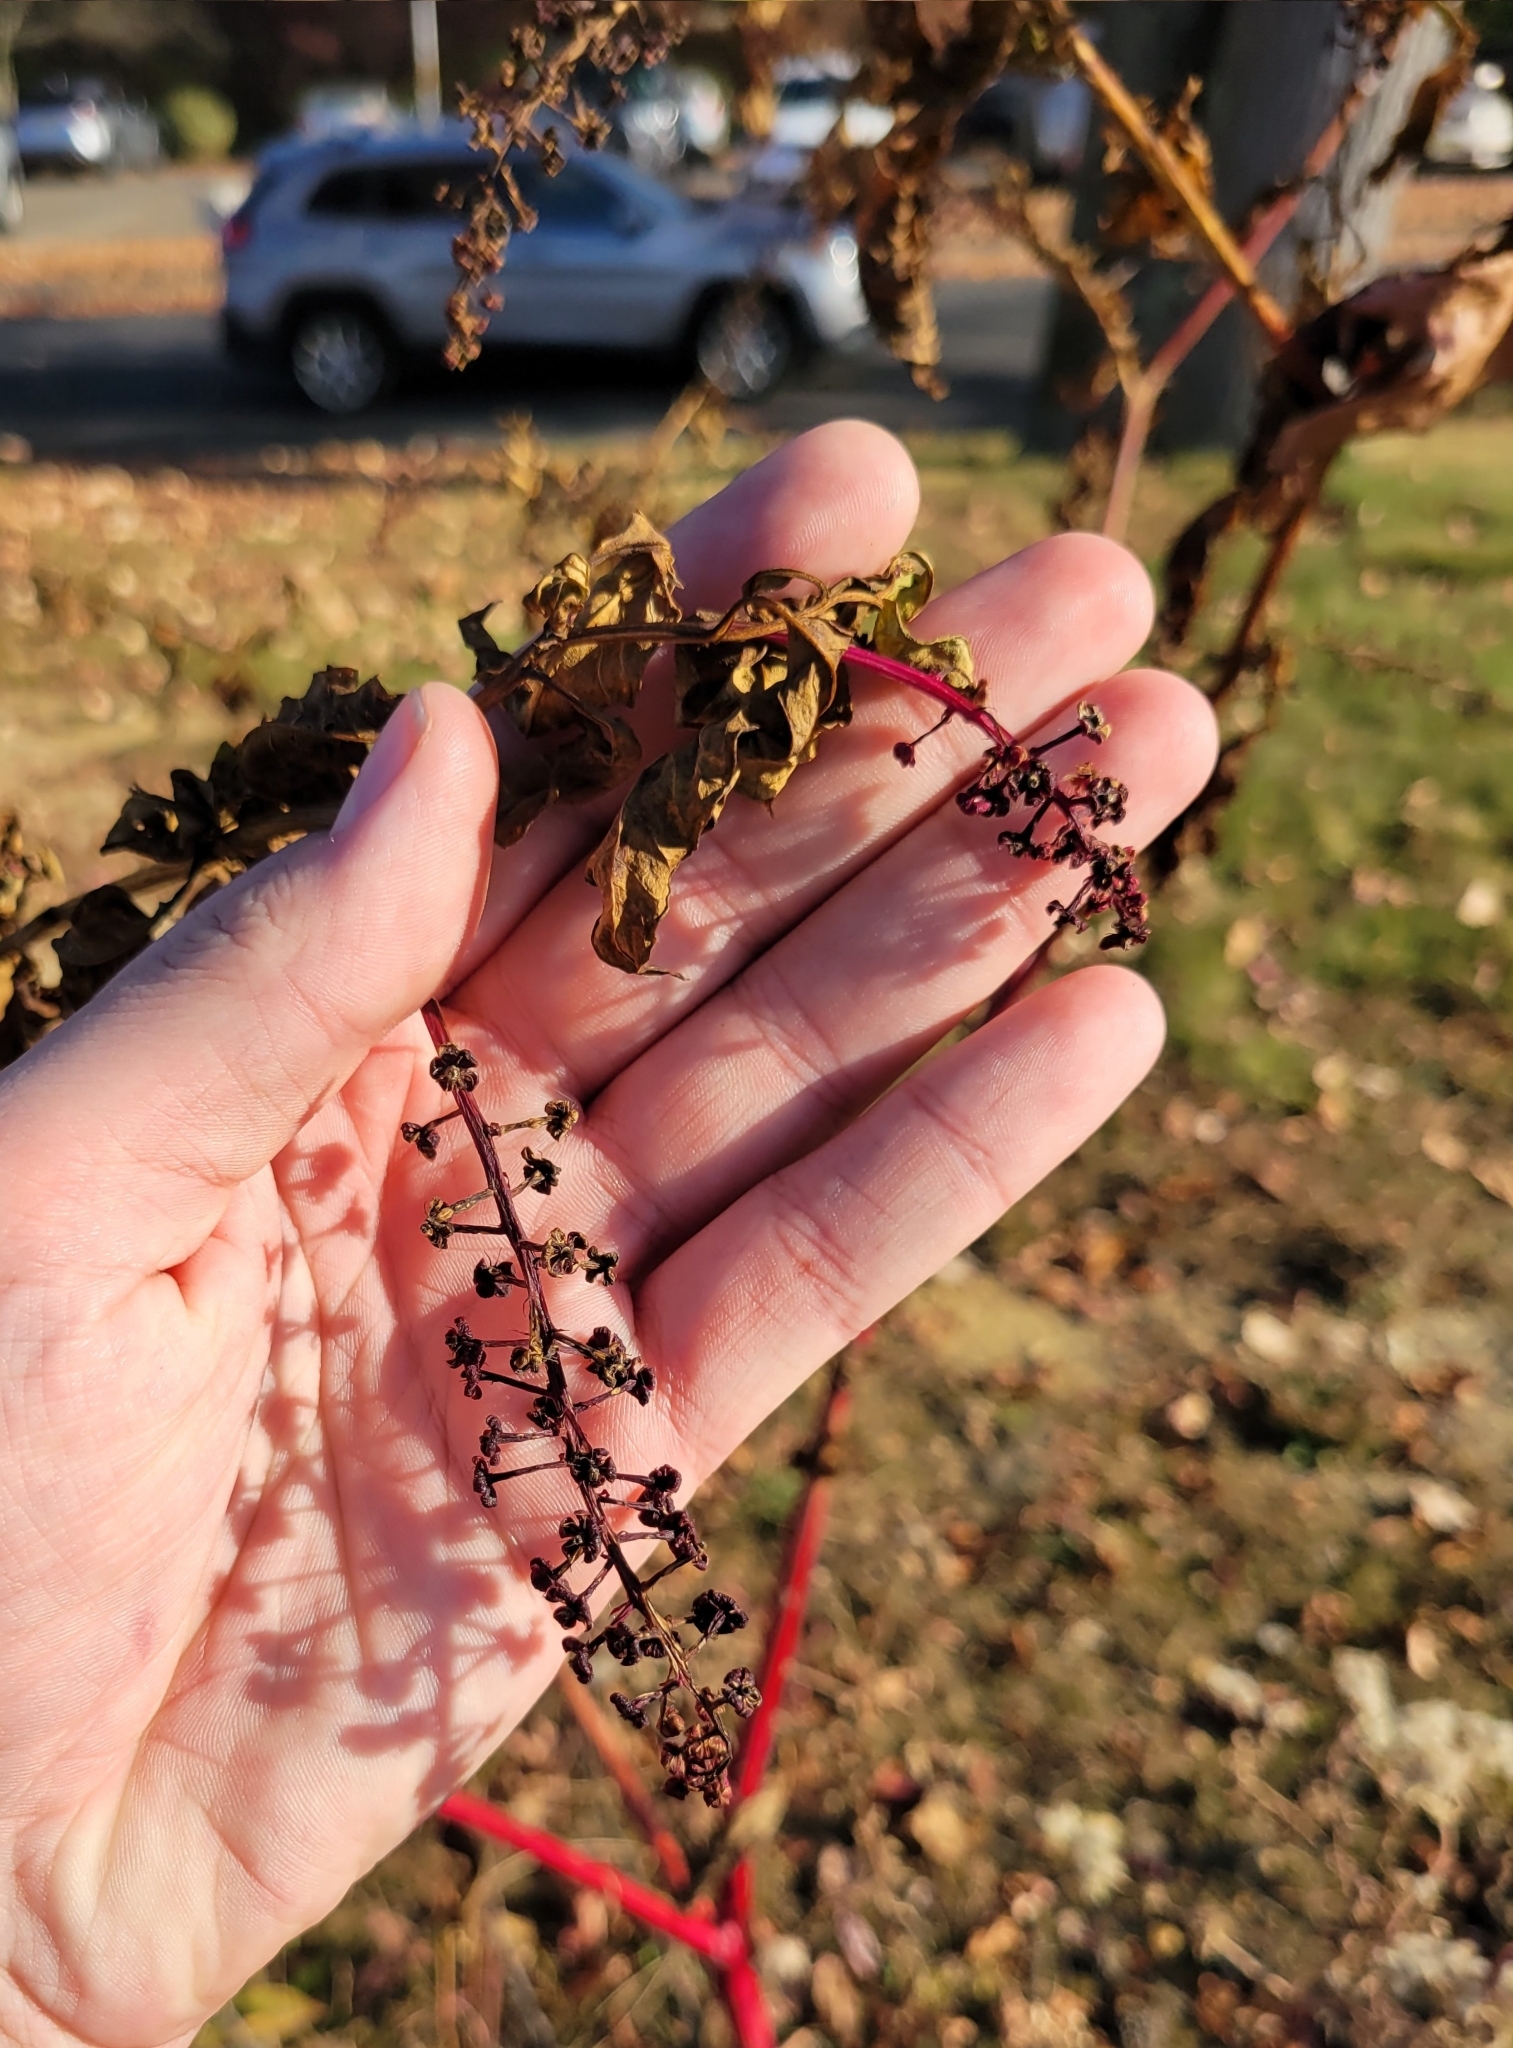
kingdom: Plantae
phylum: Tracheophyta
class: Magnoliopsida
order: Caryophyllales
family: Phytolaccaceae
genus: Phytolacca
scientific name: Phytolacca americana
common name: American pokeweed
